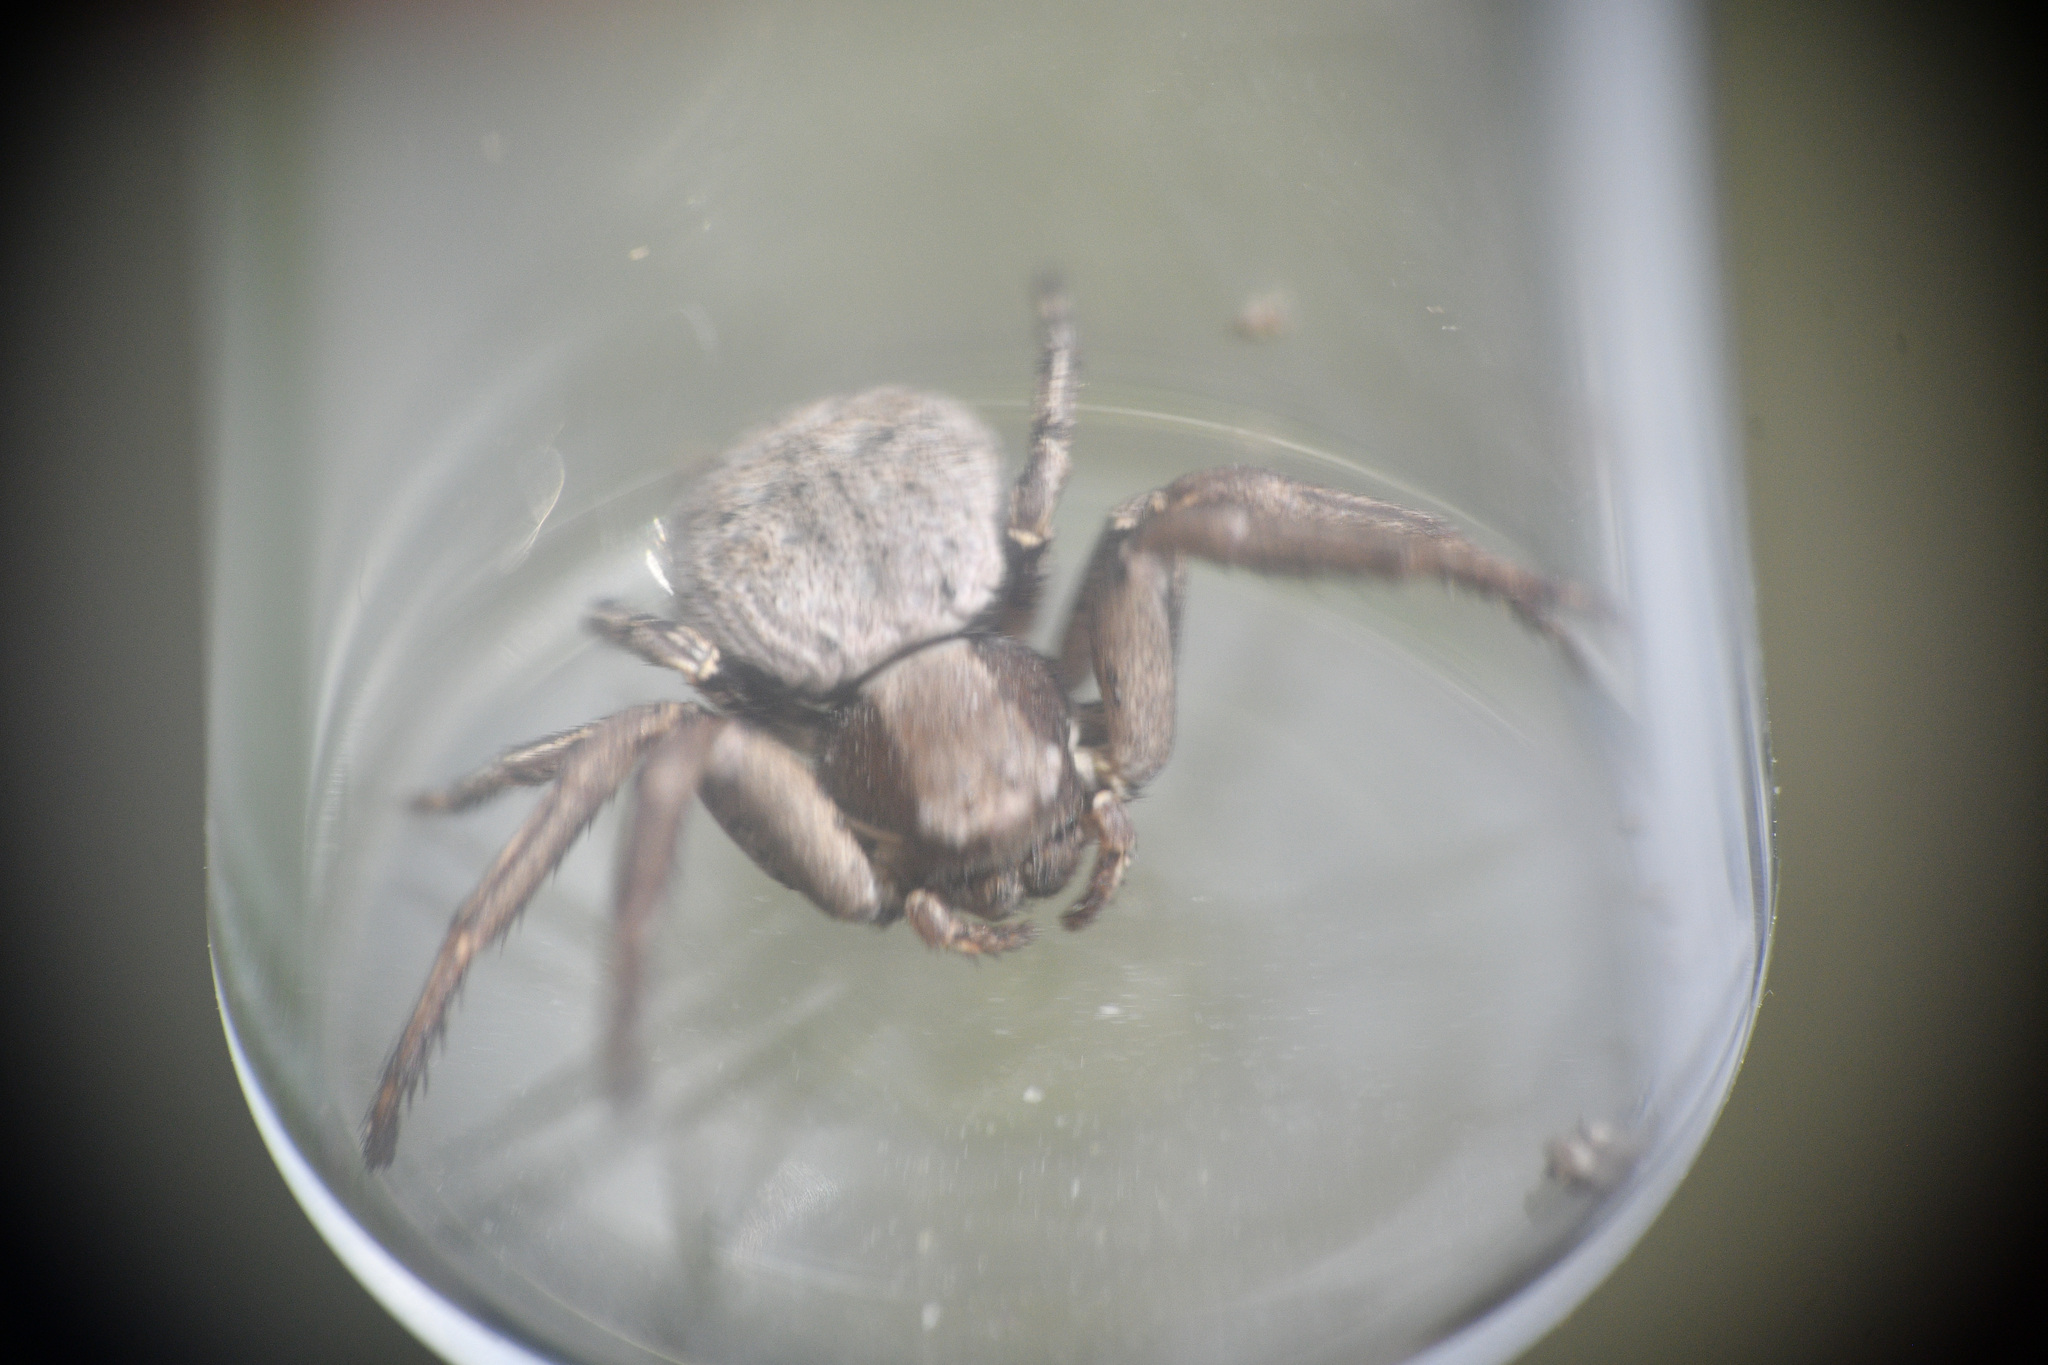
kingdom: Animalia
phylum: Arthropoda
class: Arachnida
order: Araneae
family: Thomisidae
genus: Spiracme
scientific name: Spiracme keyserlingi
